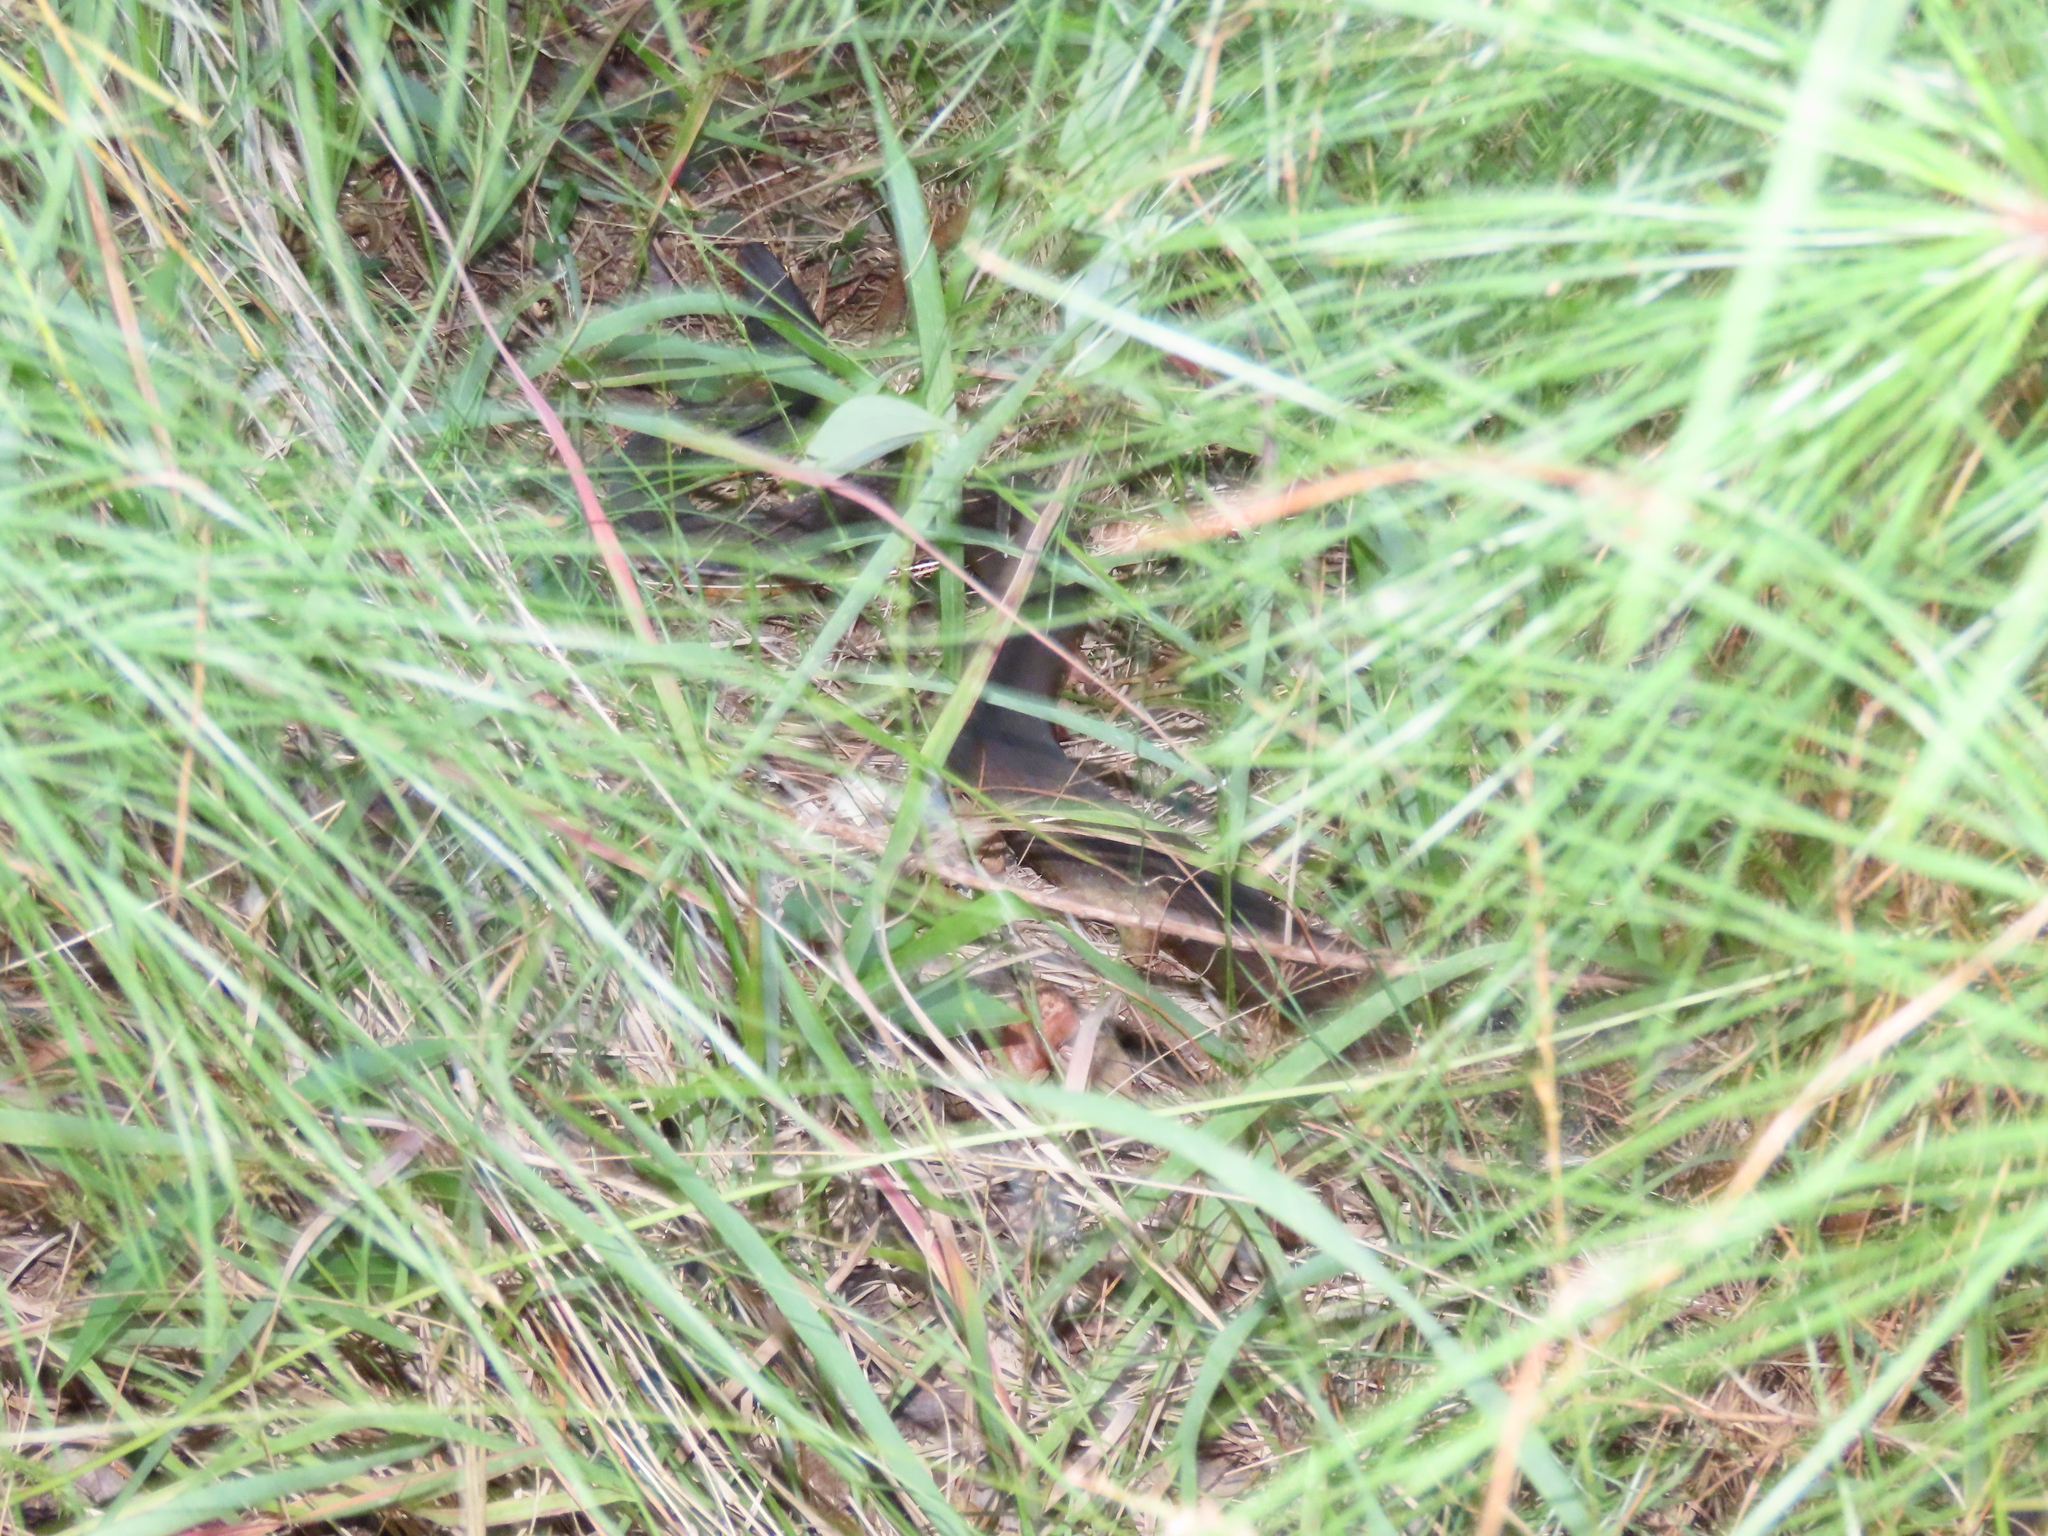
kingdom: Animalia
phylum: Chordata
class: Squamata
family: Colubridae
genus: Nerodia
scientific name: Nerodia erythrogaster
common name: Plainbelly water snake
